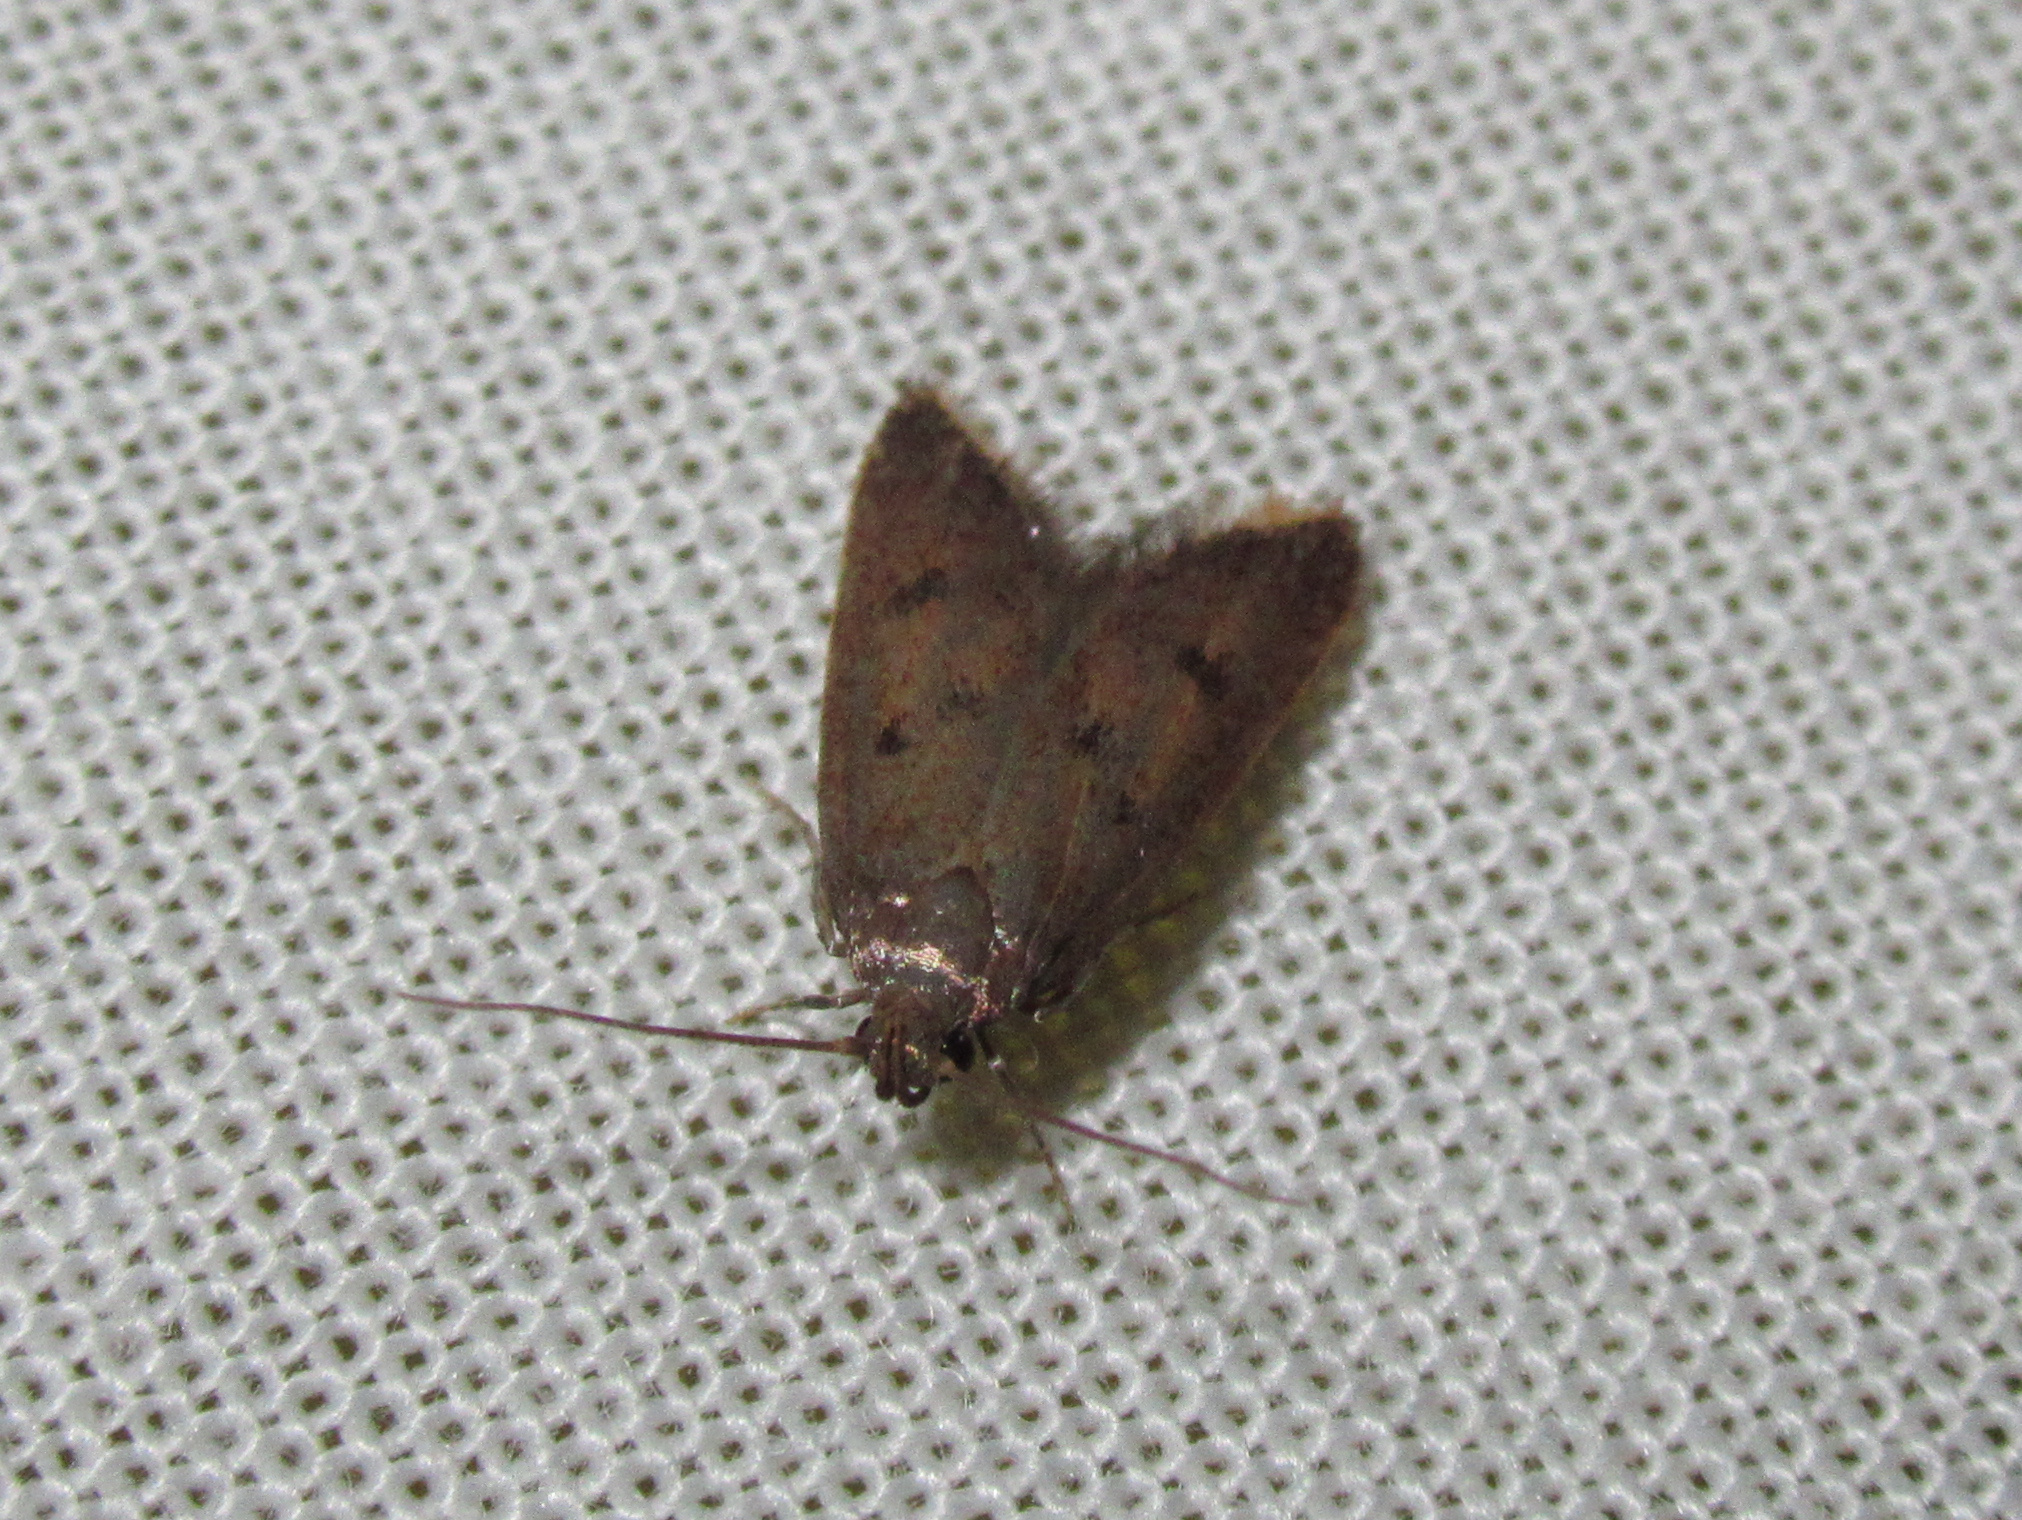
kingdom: Animalia
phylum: Arthropoda
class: Insecta
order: Lepidoptera
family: Oecophoridae
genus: Tachystola
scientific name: Tachystola acroxantha
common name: Ruddy streak
